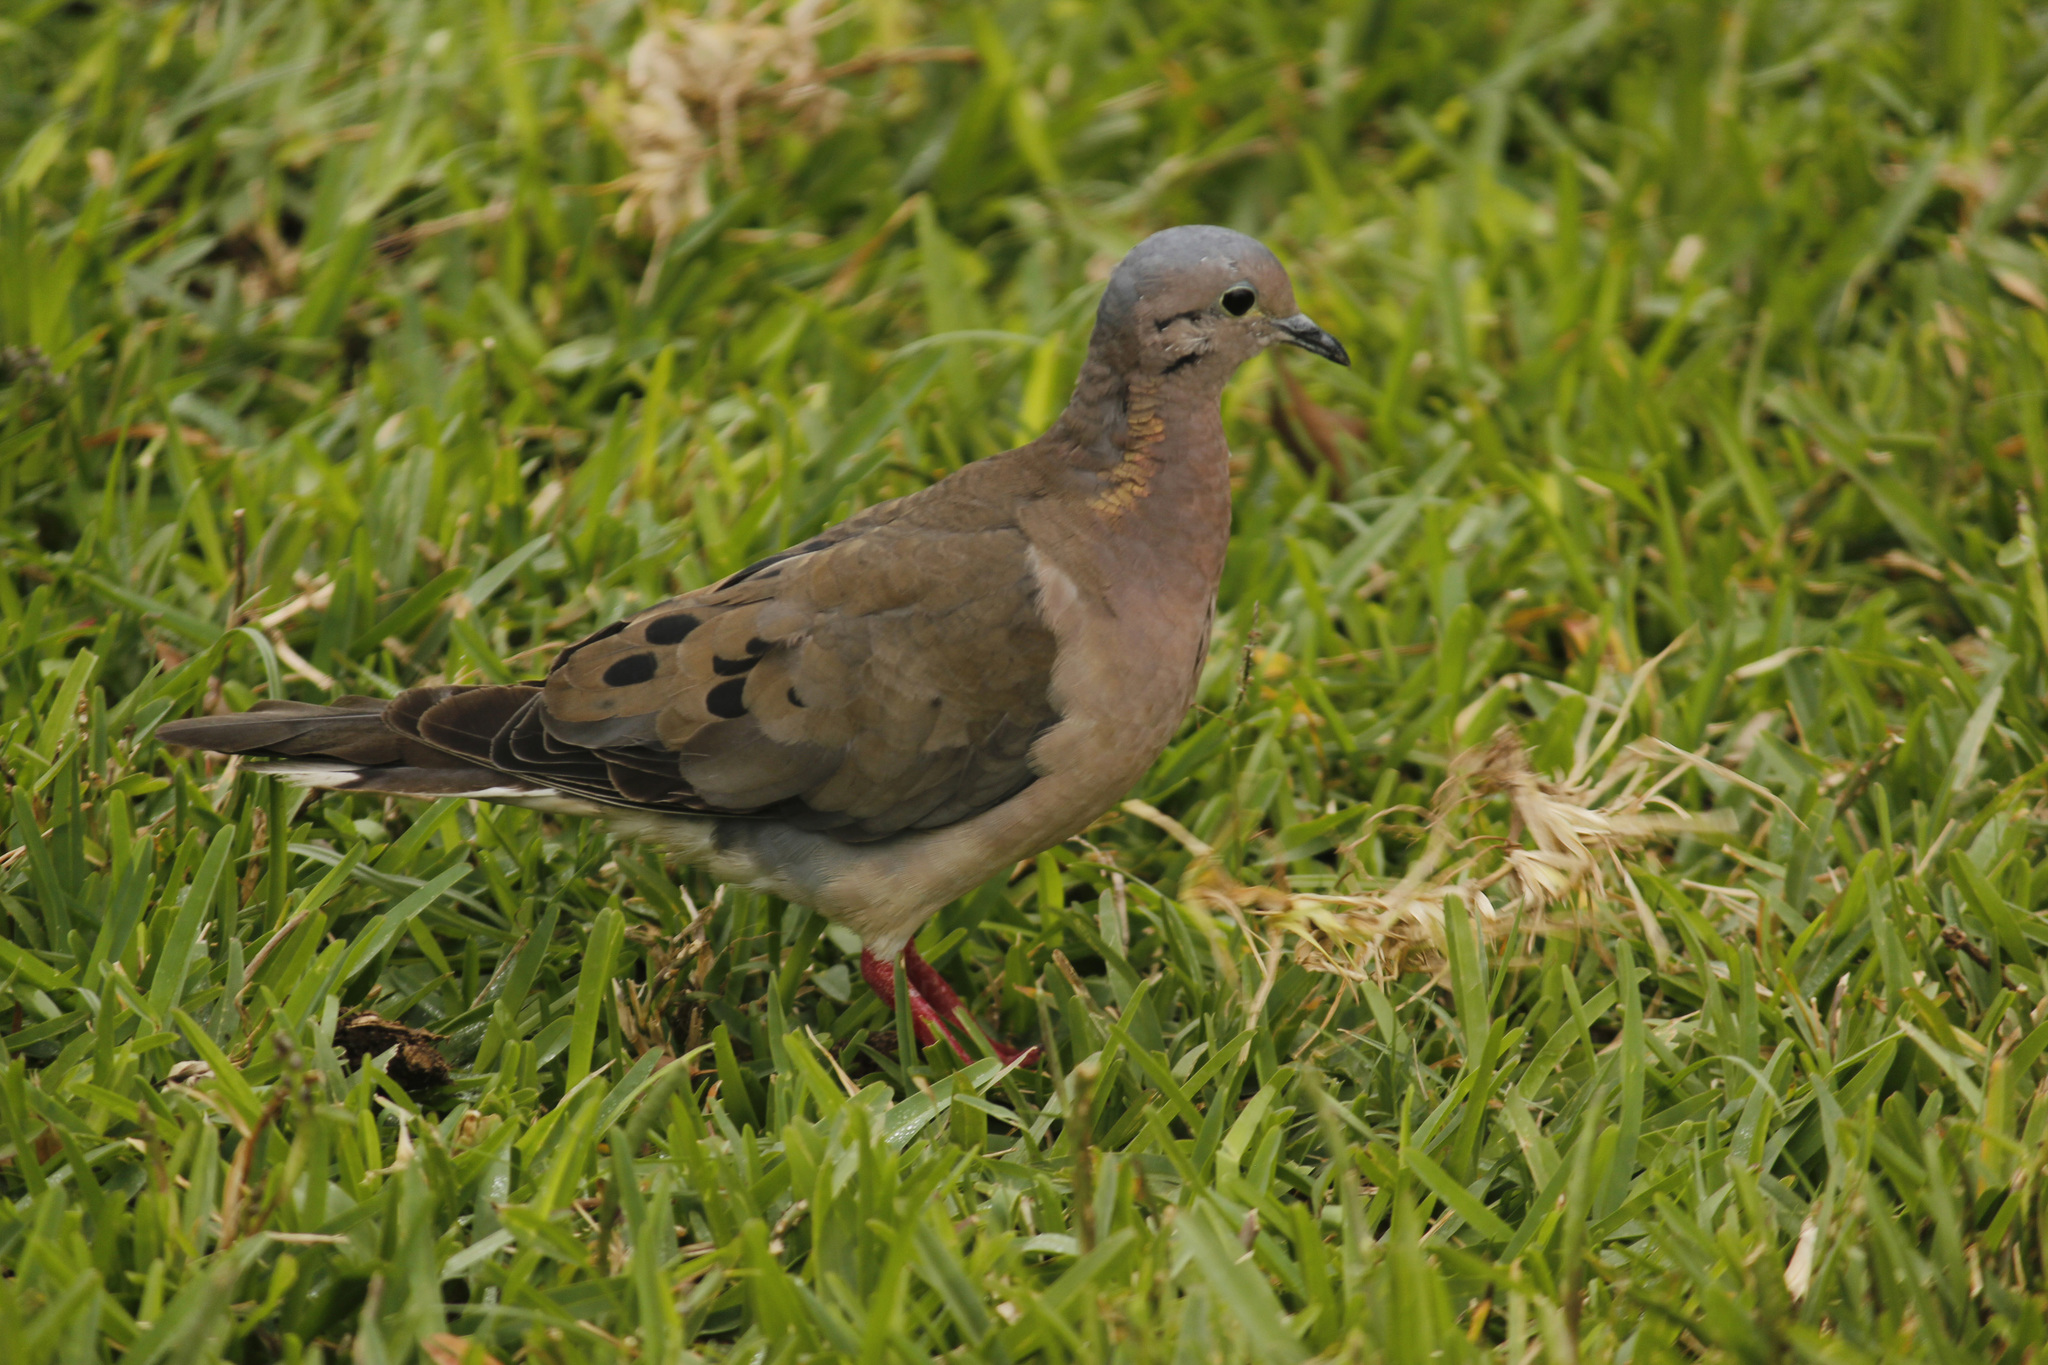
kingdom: Animalia
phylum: Chordata
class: Aves
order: Columbiformes
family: Columbidae
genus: Zenaida
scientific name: Zenaida auriculata
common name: Eared dove
